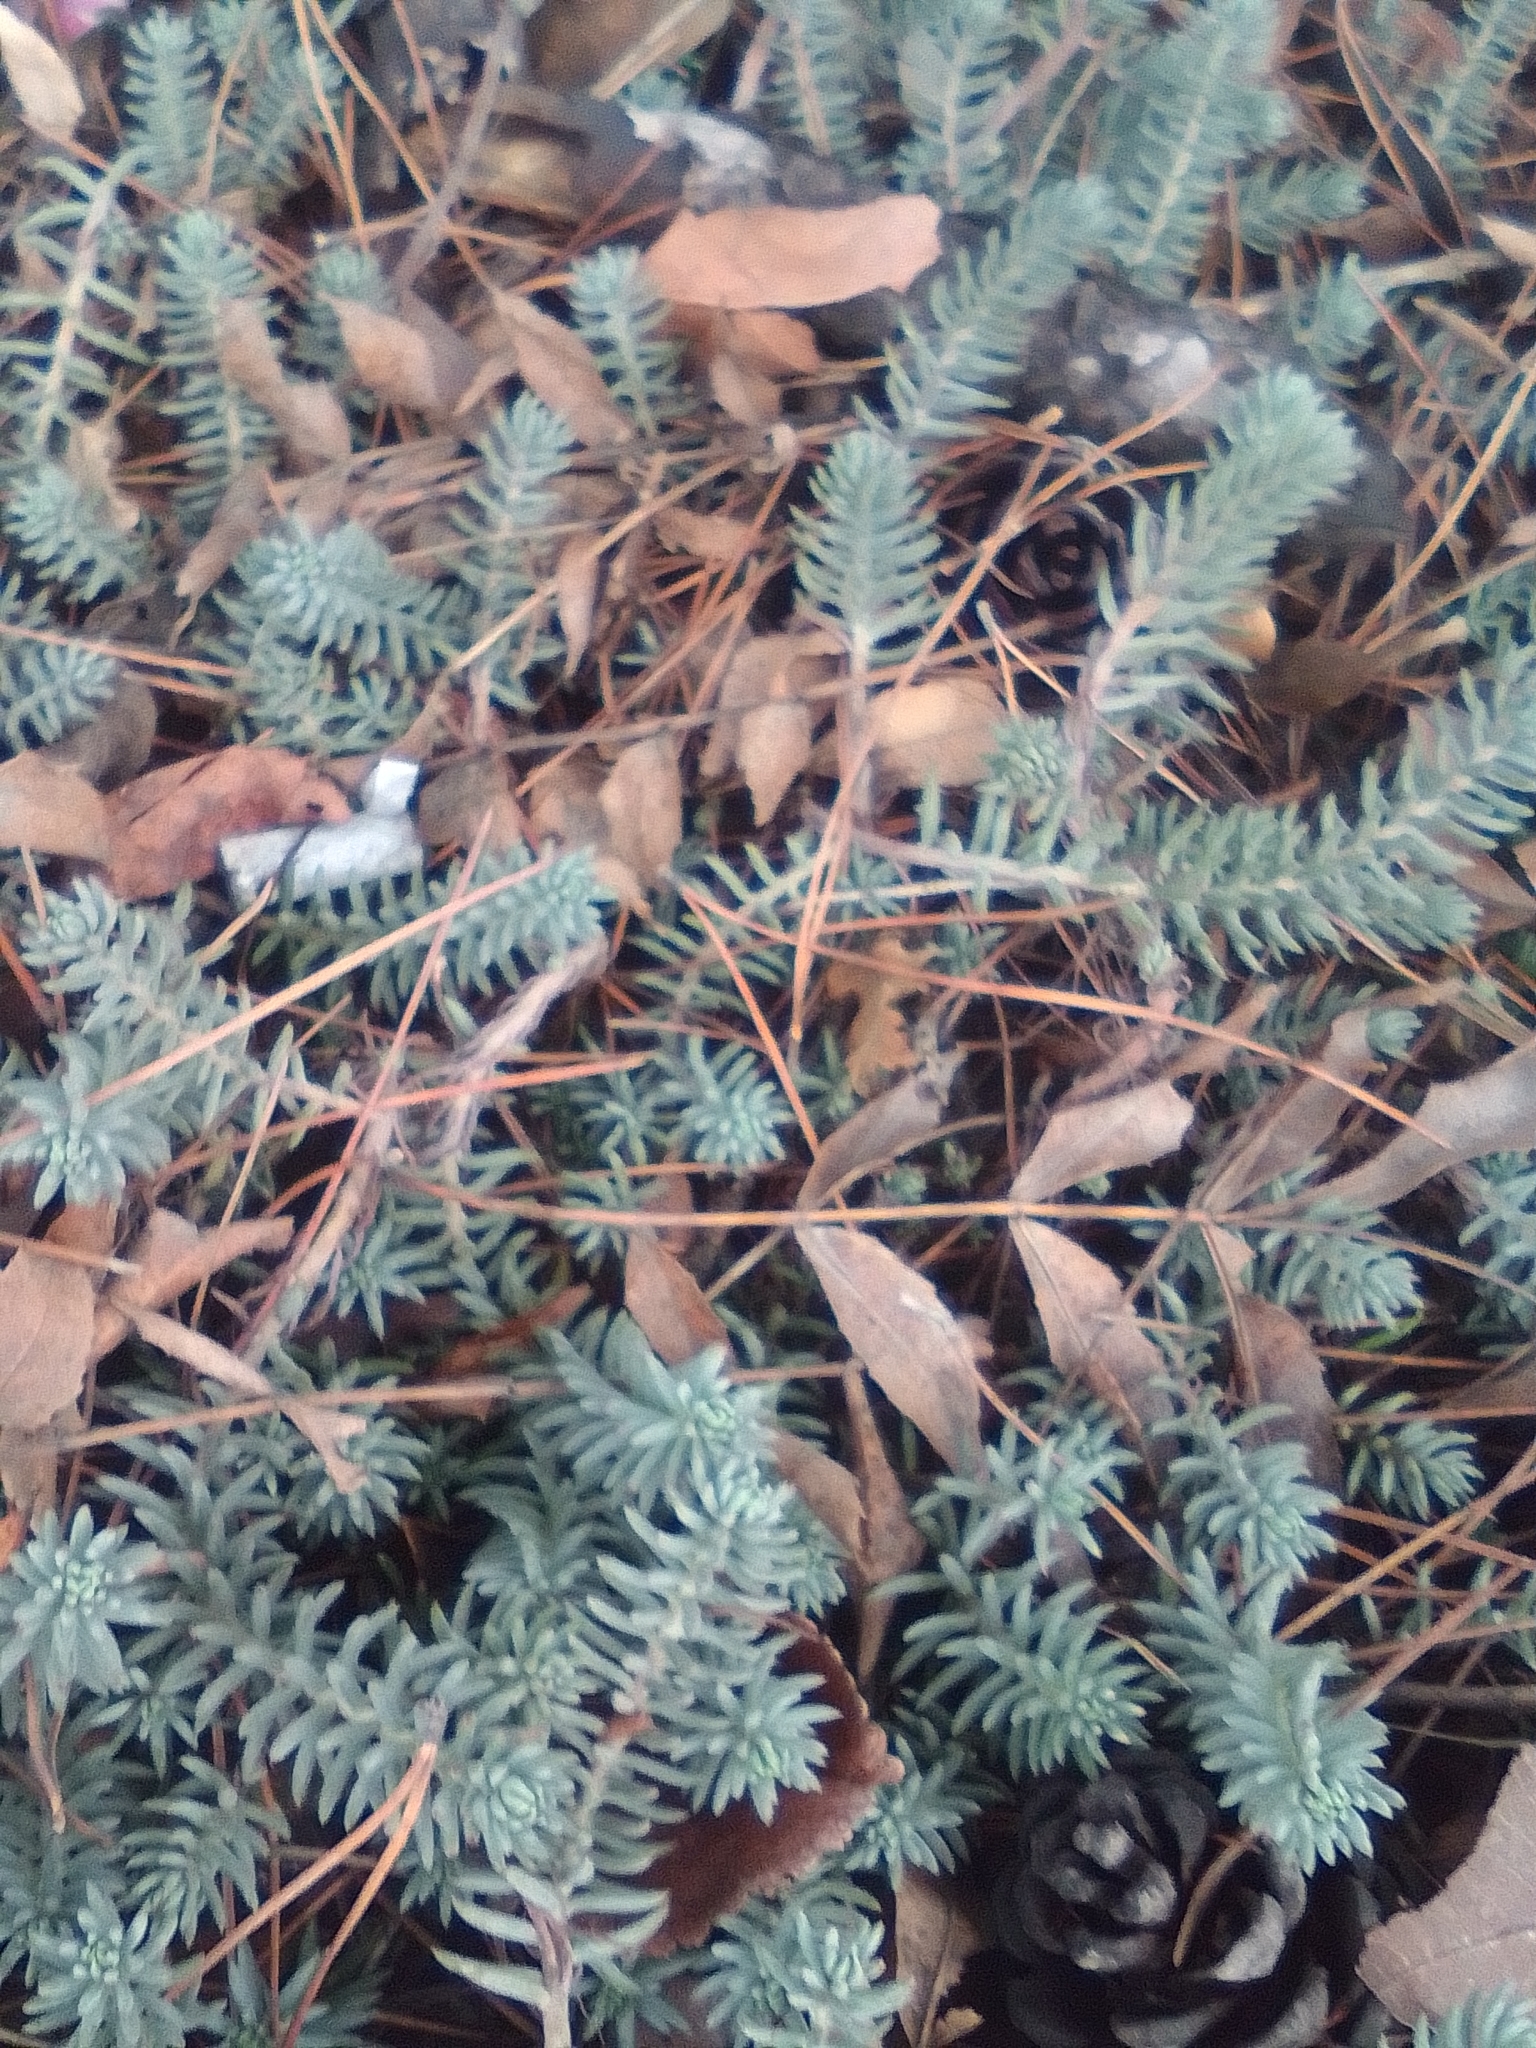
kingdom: Plantae
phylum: Tracheophyta
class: Magnoliopsida
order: Saxifragales
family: Crassulaceae
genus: Petrosedum
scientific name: Petrosedum rupestre
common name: Jenny's stonecrop
